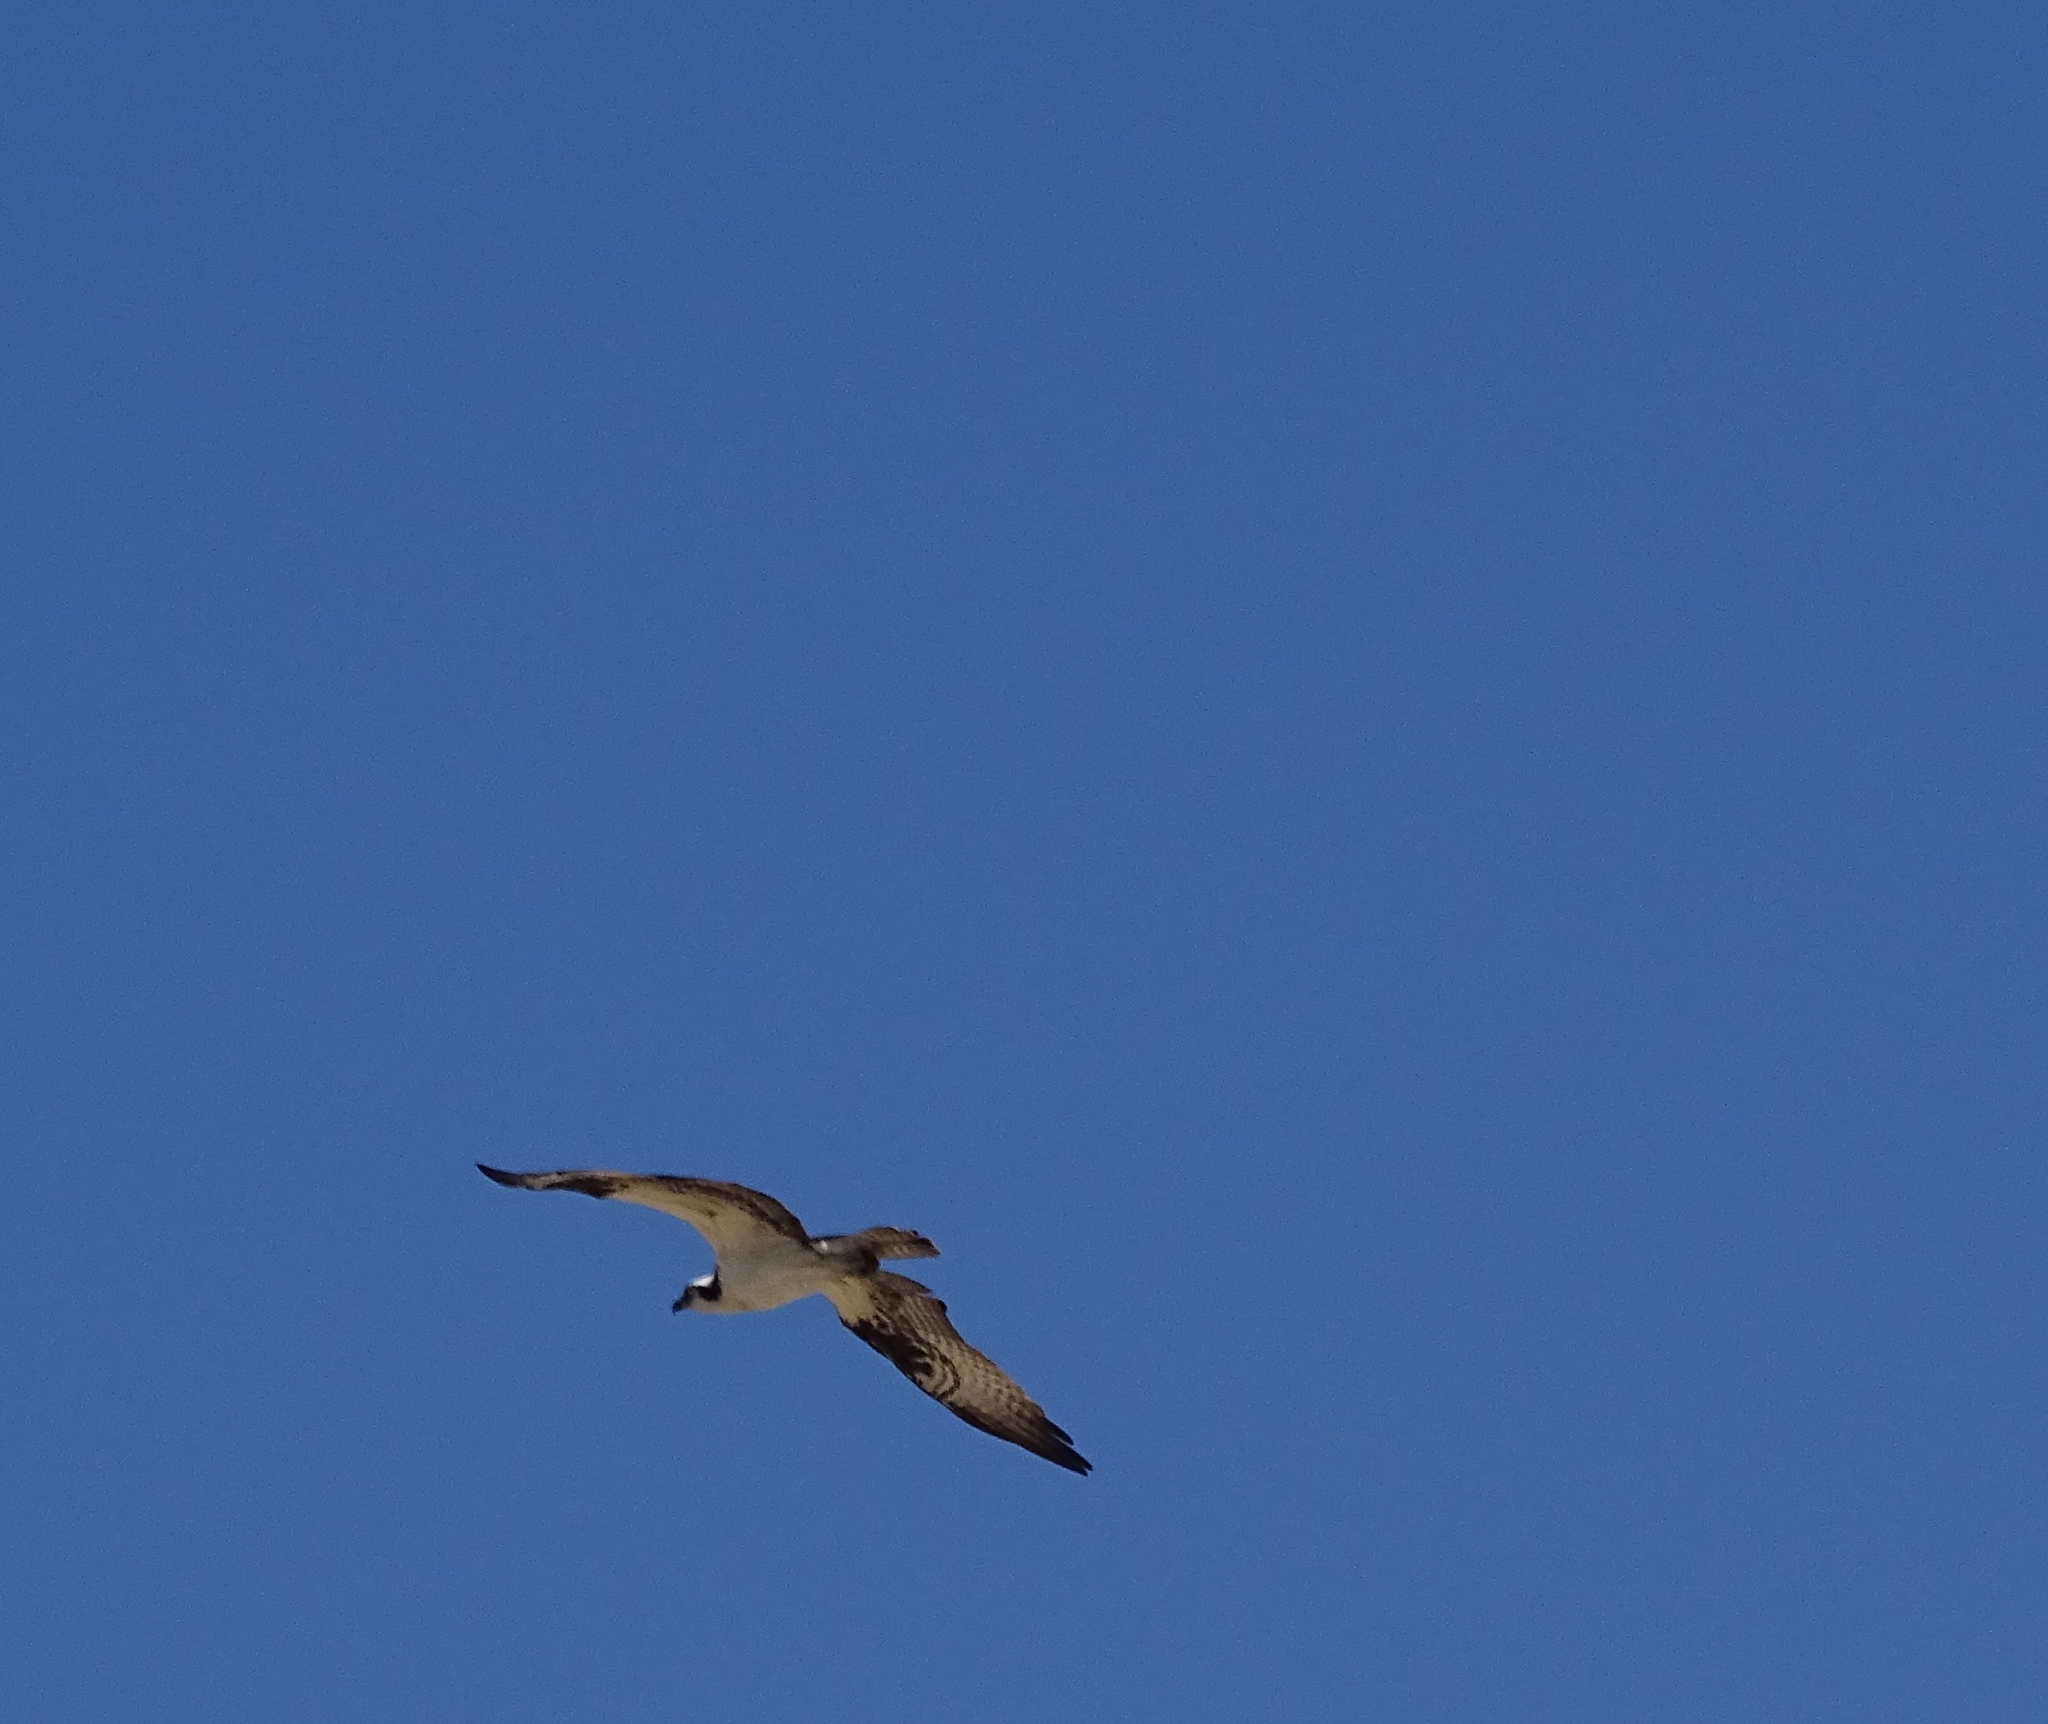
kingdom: Animalia
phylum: Chordata
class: Aves
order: Accipitriformes
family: Pandionidae
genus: Pandion
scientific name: Pandion haliaetus
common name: Osprey
